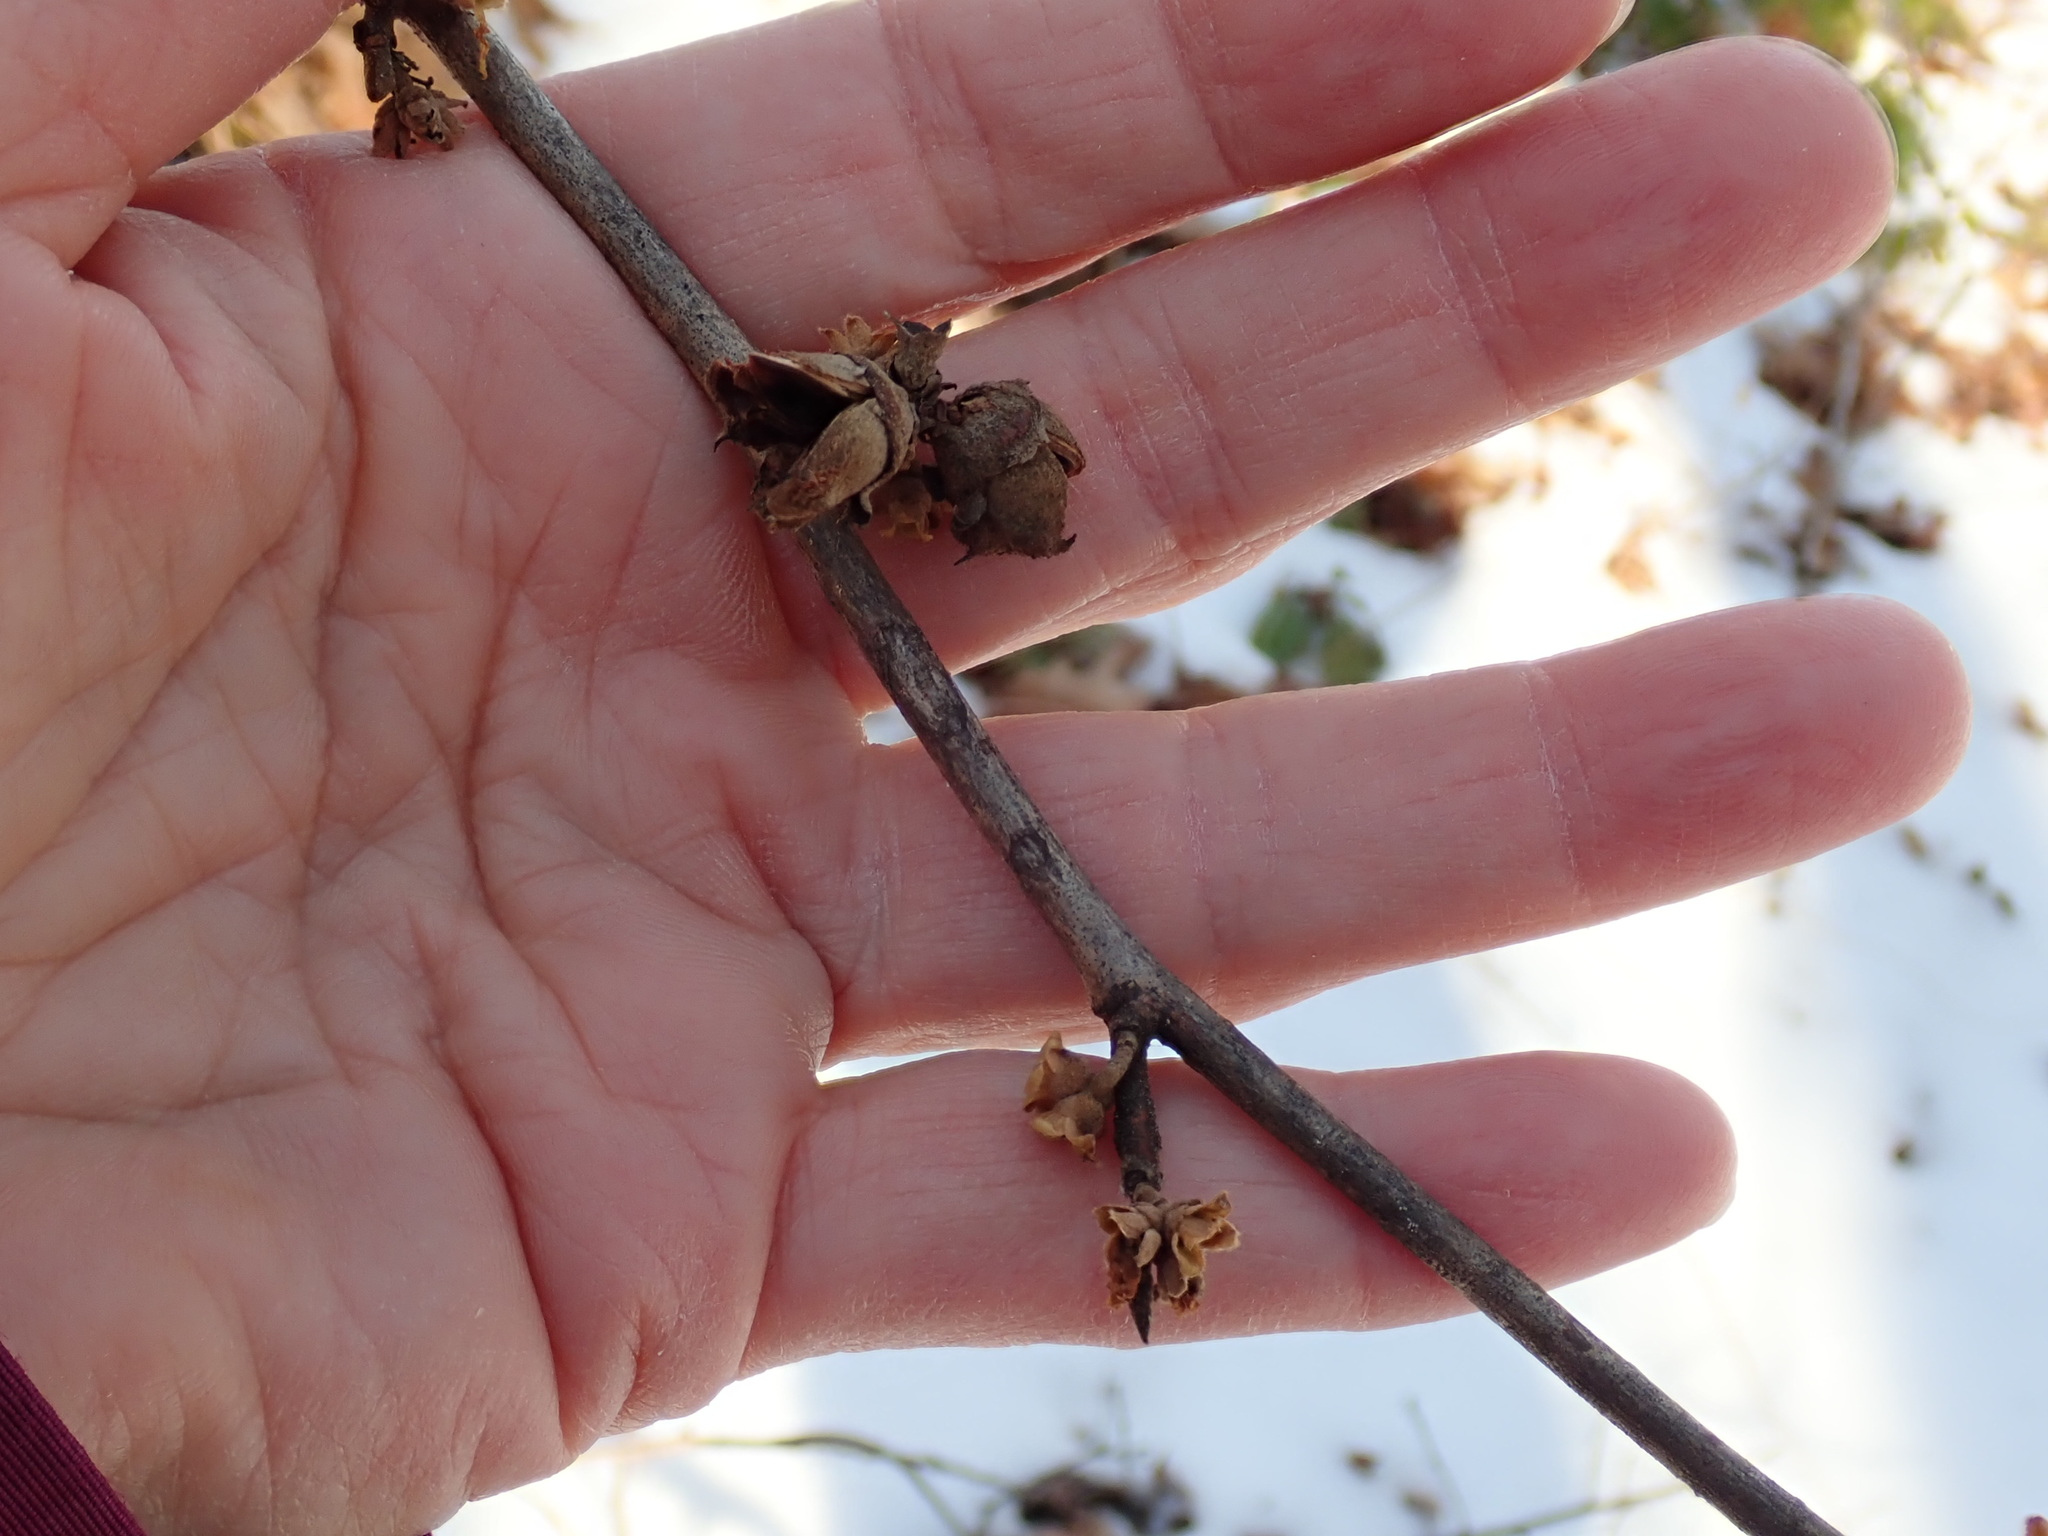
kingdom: Plantae
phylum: Tracheophyta
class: Magnoliopsida
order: Saxifragales
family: Hamamelidaceae
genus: Hamamelis
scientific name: Hamamelis virginiana
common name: Witch-hazel
